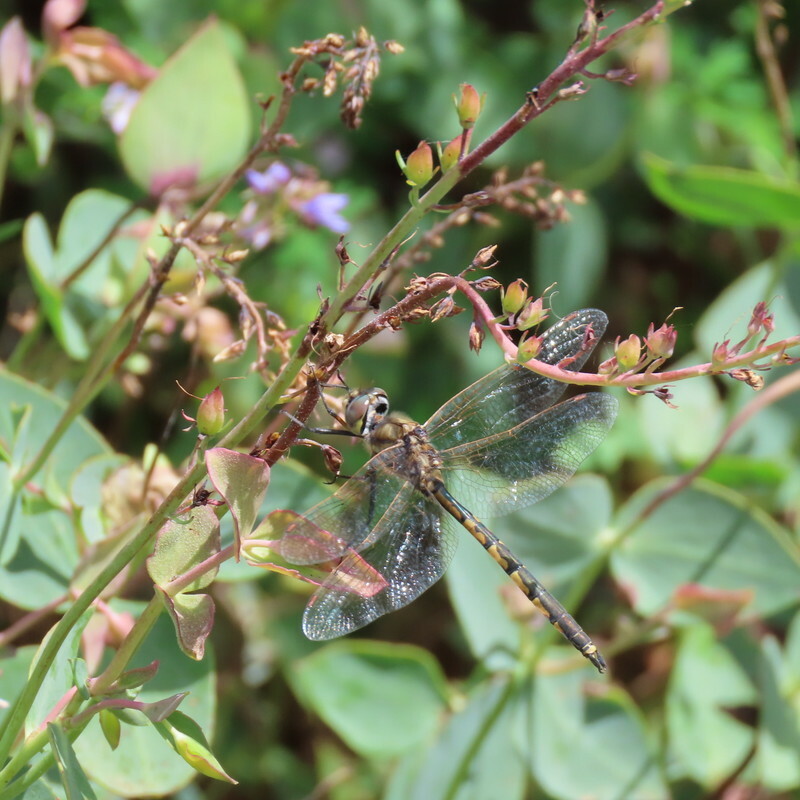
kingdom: Animalia
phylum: Arthropoda
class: Insecta
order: Odonata
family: Corduliidae
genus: Hemicordulia
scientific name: Hemicordulia tau
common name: Tau emerald
